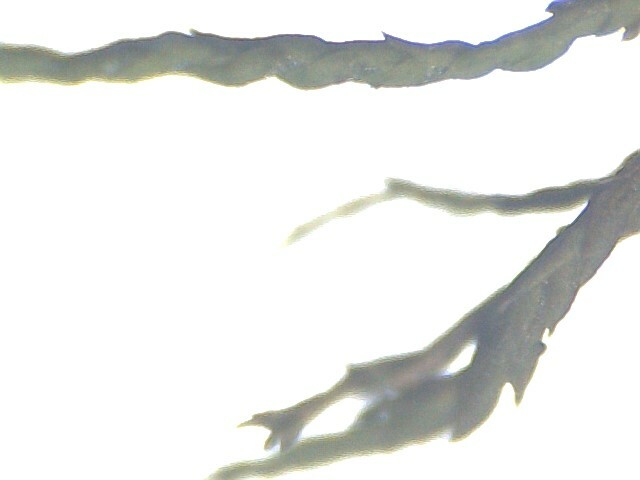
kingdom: Plantae
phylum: Bryophyta
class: Bryopsida
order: Hypnales
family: Neckeraceae
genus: Pseudanomodon
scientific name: Pseudanomodon attenuatus
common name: Tree-skirt moss
